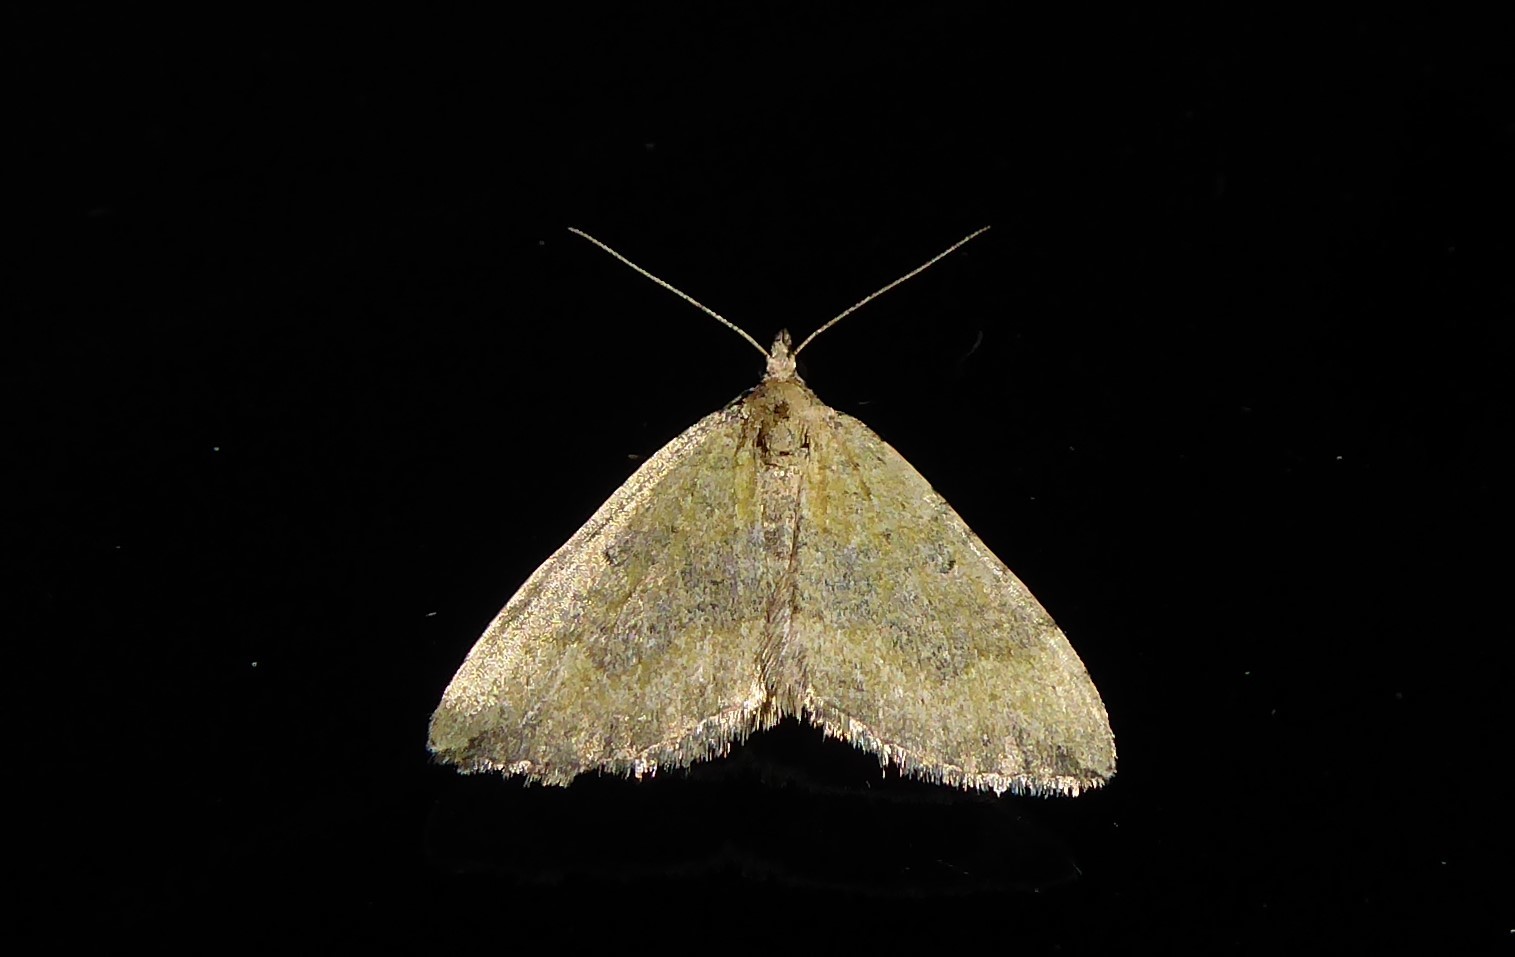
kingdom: Animalia
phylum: Arthropoda
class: Insecta
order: Lepidoptera
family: Geometridae
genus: Epyaxa
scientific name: Epyaxa rosearia
